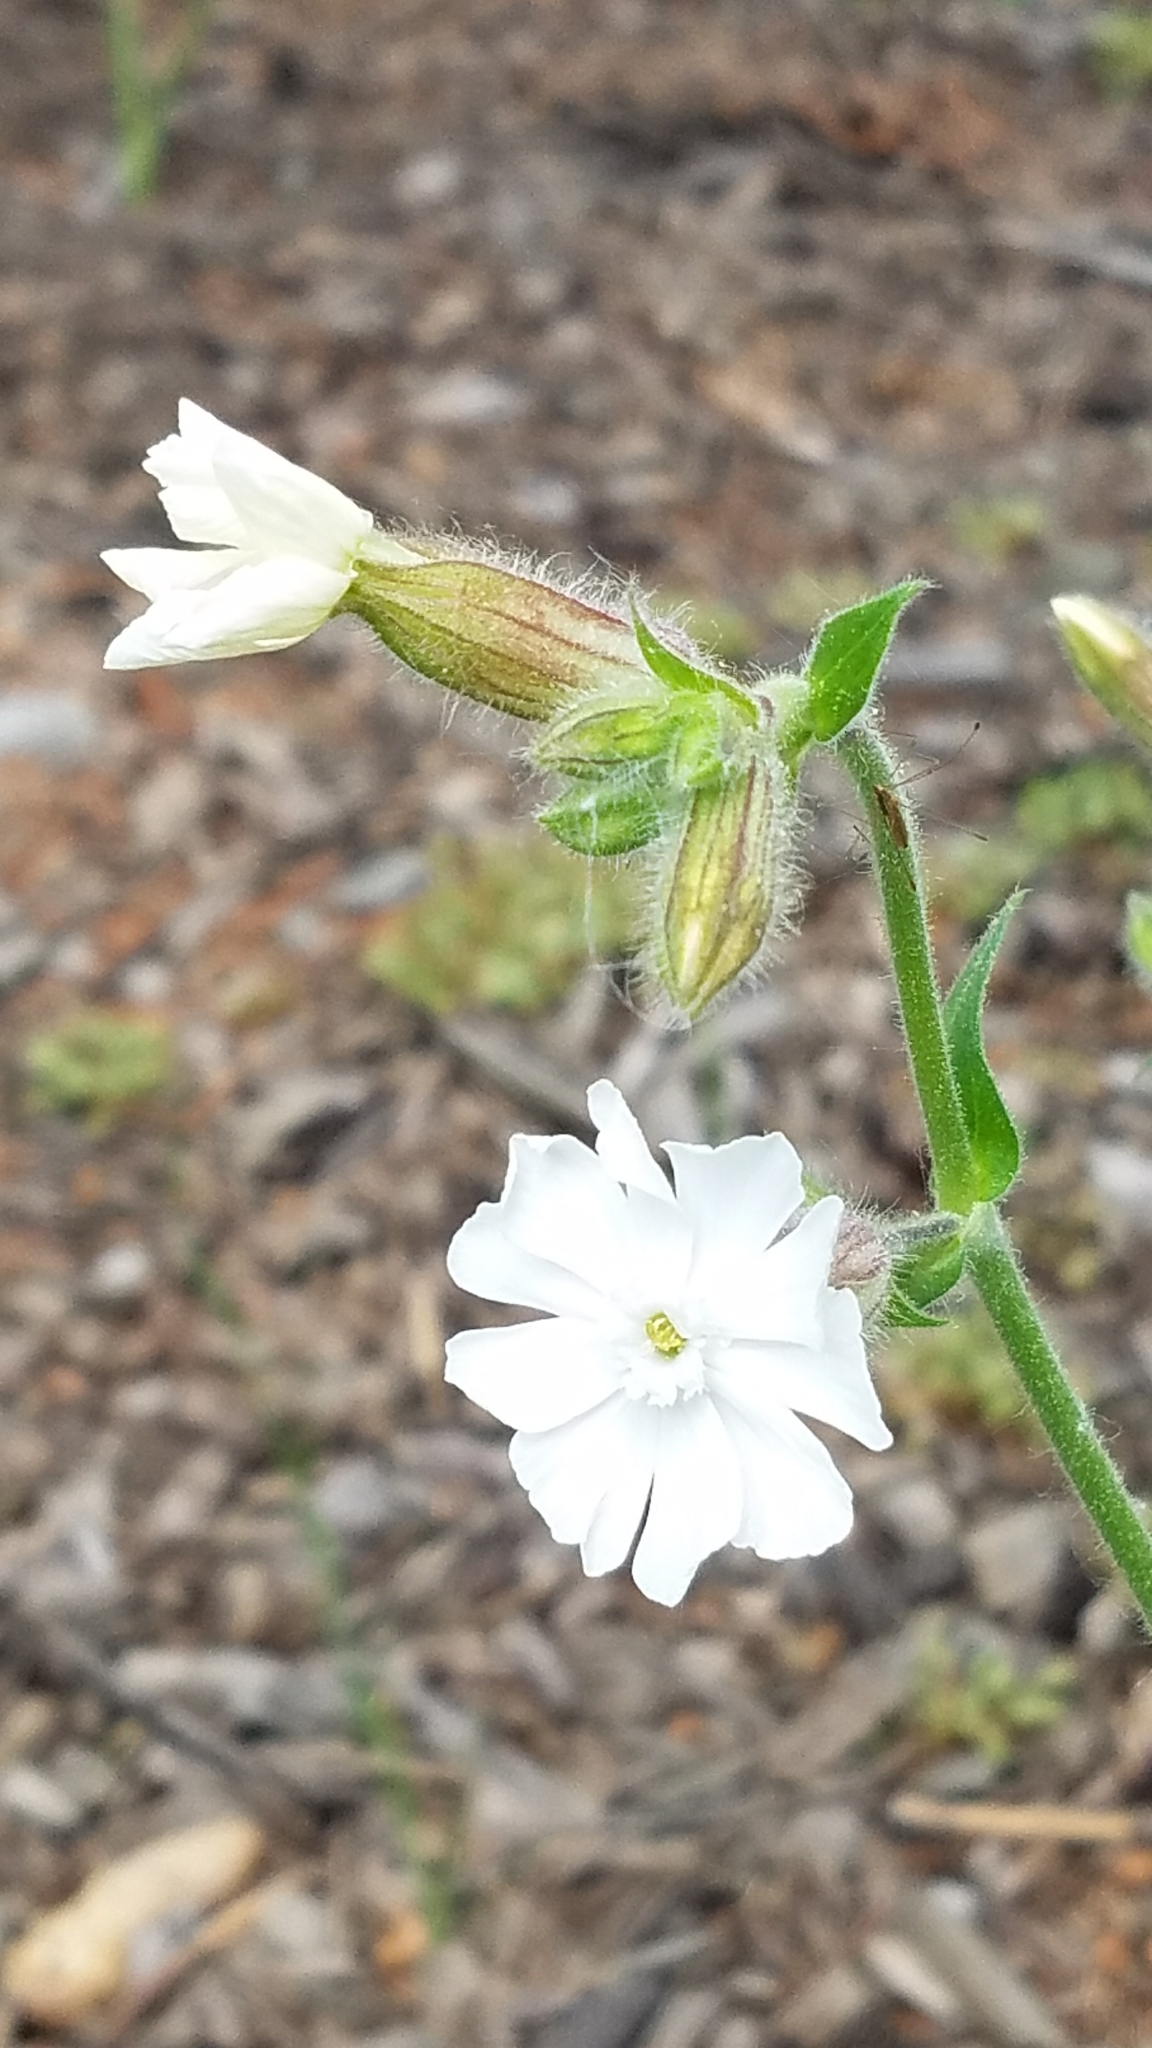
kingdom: Plantae
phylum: Tracheophyta
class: Magnoliopsida
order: Caryophyllales
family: Caryophyllaceae
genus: Silene
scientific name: Silene latifolia
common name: White campion
